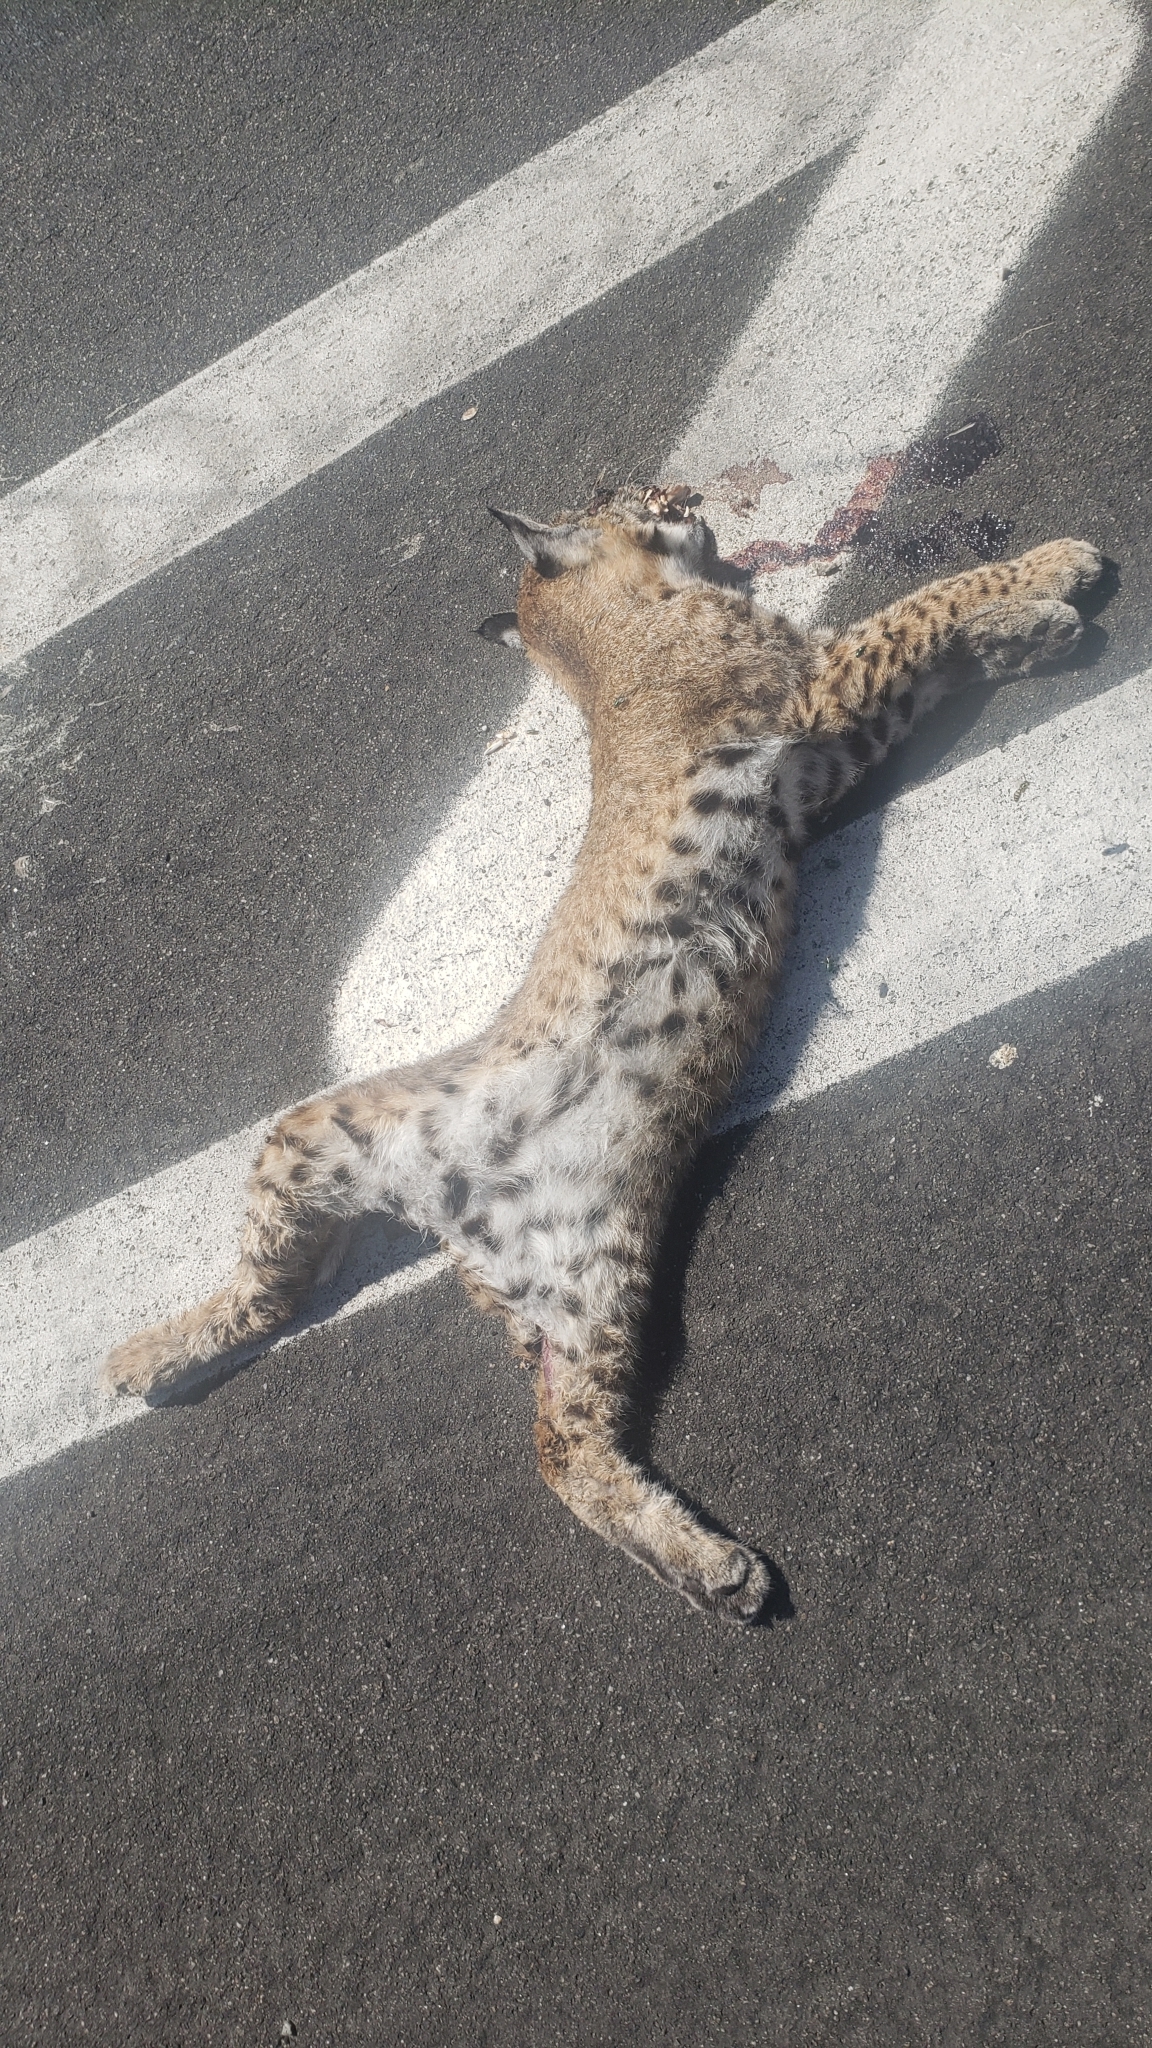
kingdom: Animalia
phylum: Chordata
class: Mammalia
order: Carnivora
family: Felidae
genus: Lynx
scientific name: Lynx rufus
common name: Bobcat
